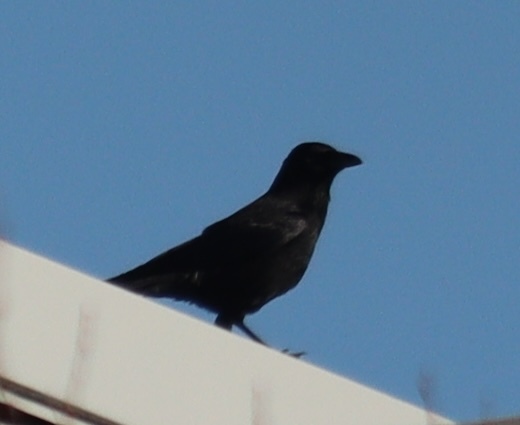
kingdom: Animalia
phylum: Chordata
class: Aves
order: Passeriformes
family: Corvidae
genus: Corvus
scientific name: Corvus corone
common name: Carrion crow
